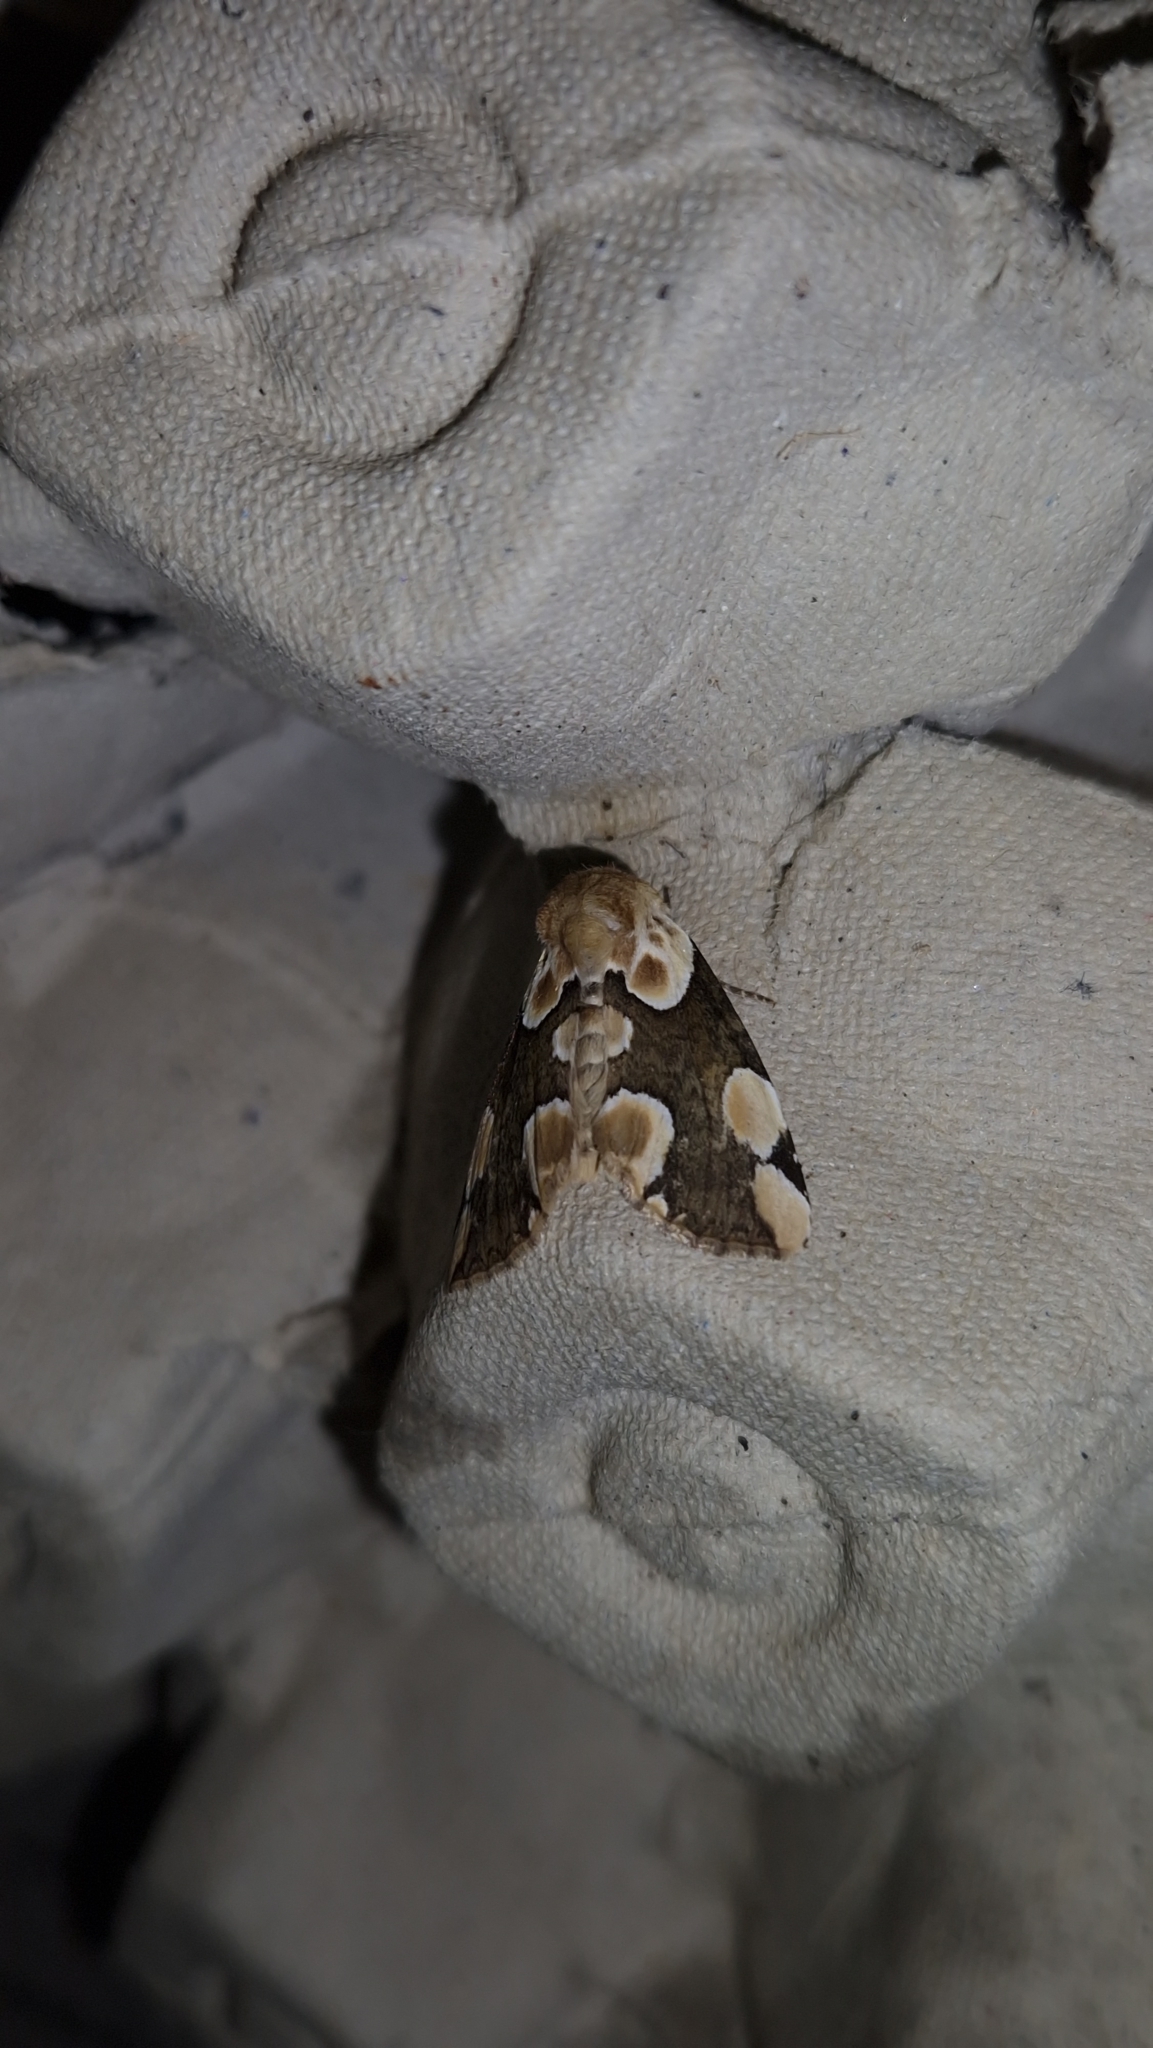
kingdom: Animalia
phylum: Arthropoda
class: Insecta
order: Lepidoptera
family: Drepanidae
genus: Thyatira
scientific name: Thyatira batis
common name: Peach blossom
